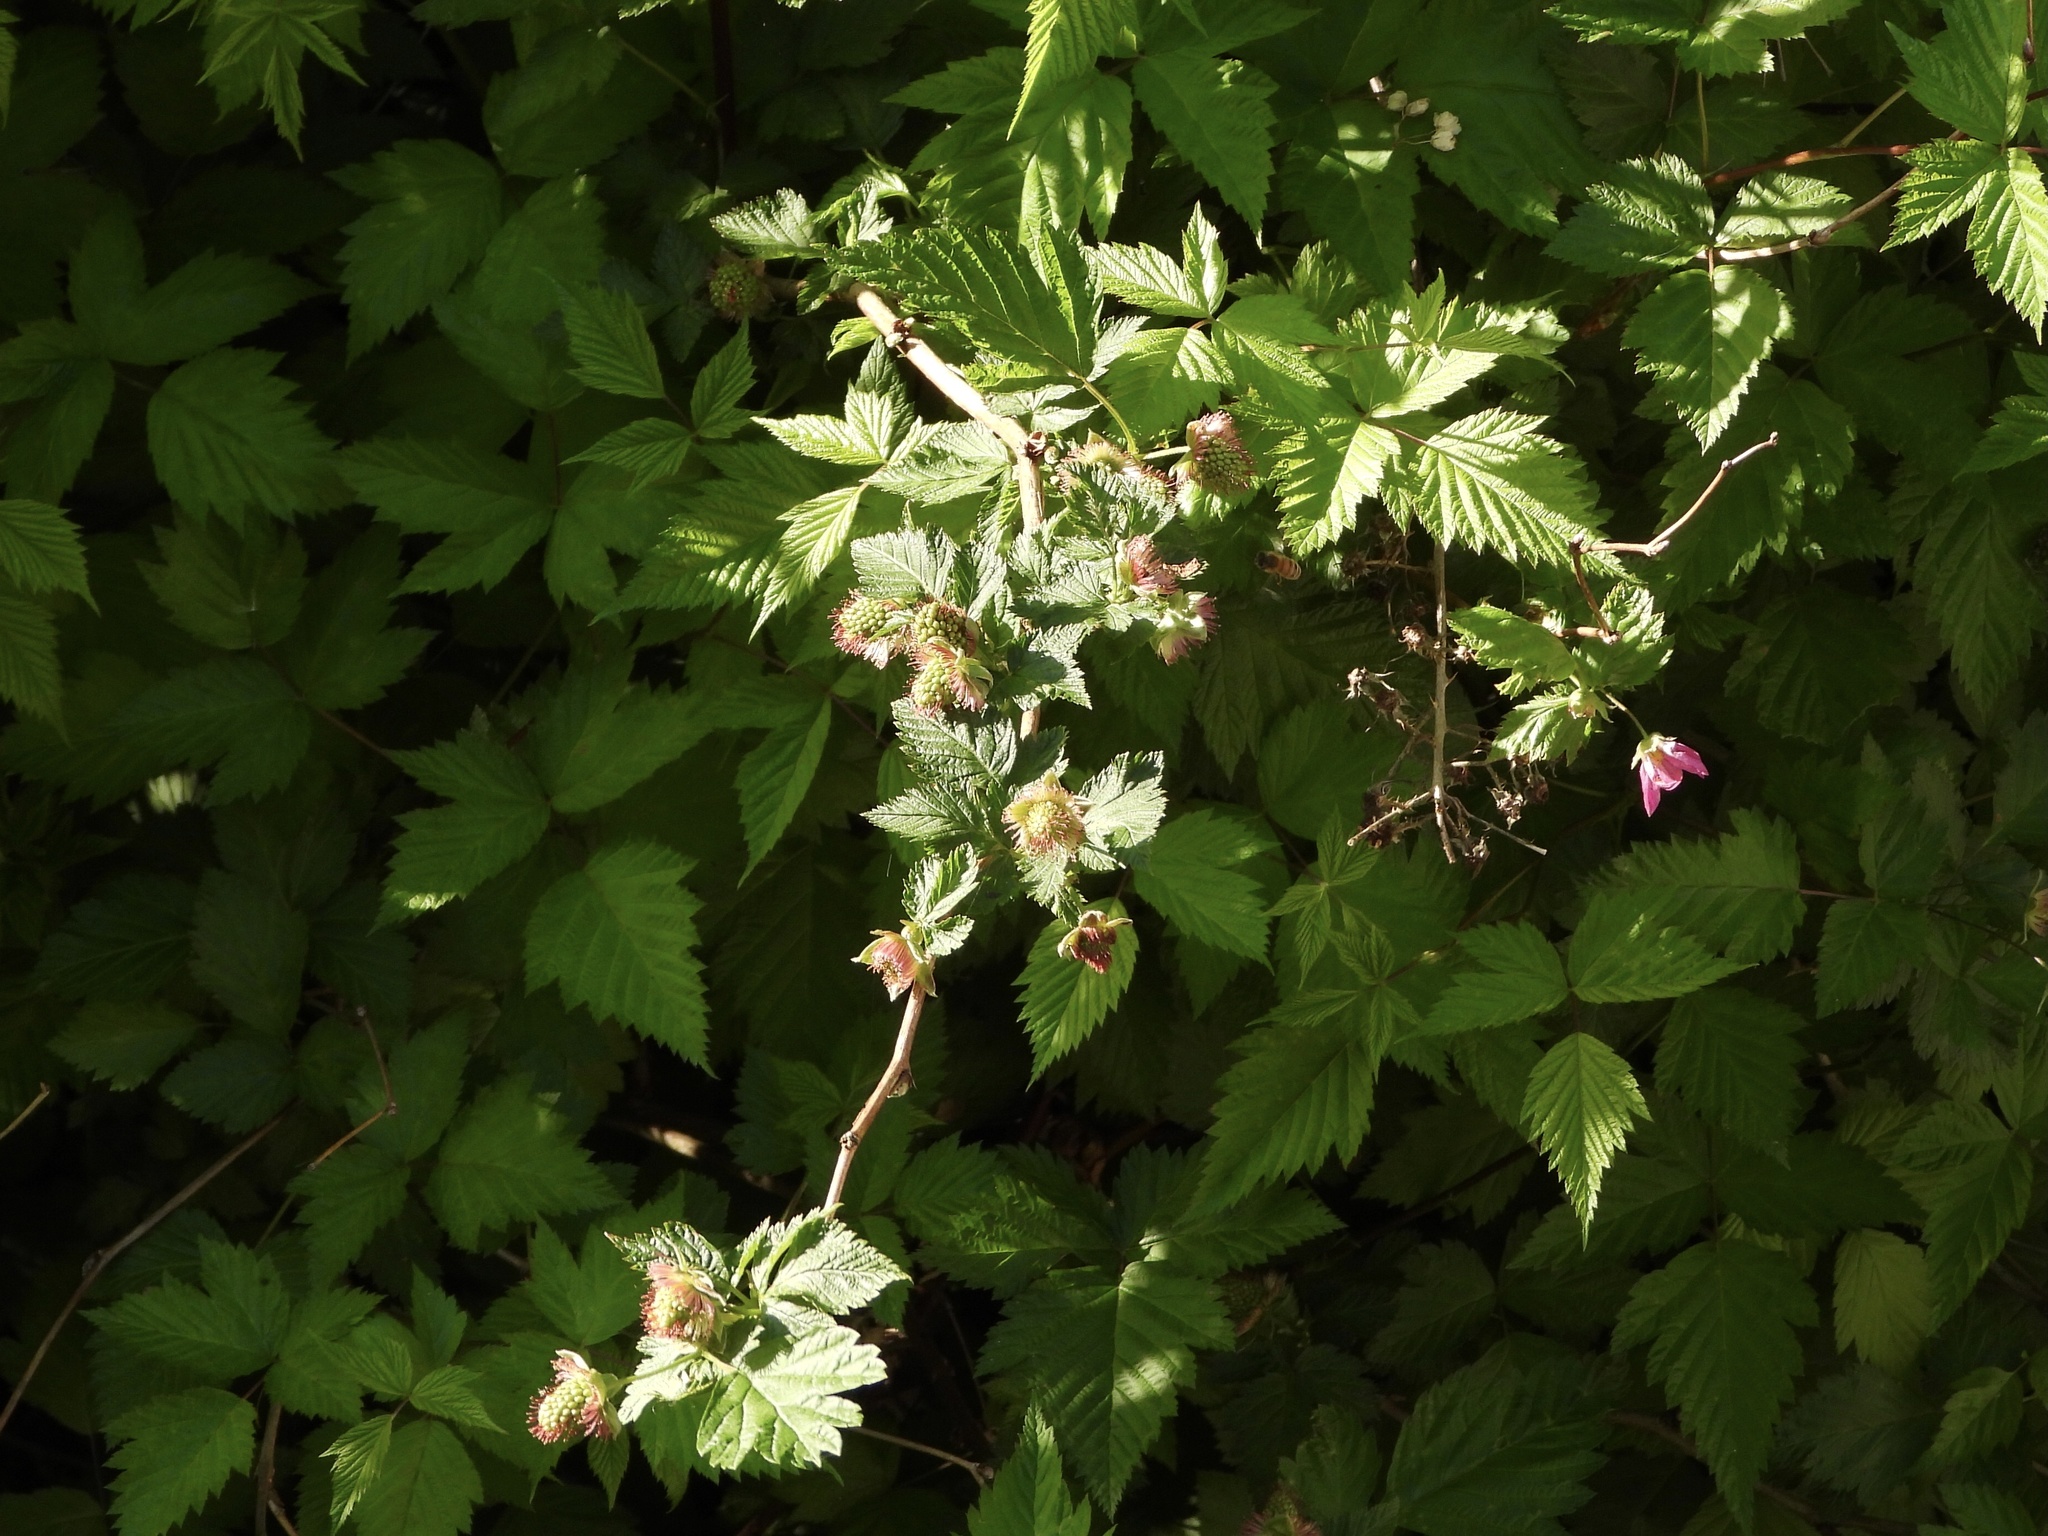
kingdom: Plantae
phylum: Tracheophyta
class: Magnoliopsida
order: Rosales
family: Rosaceae
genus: Rubus
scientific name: Rubus spectabilis
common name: Salmonberry
